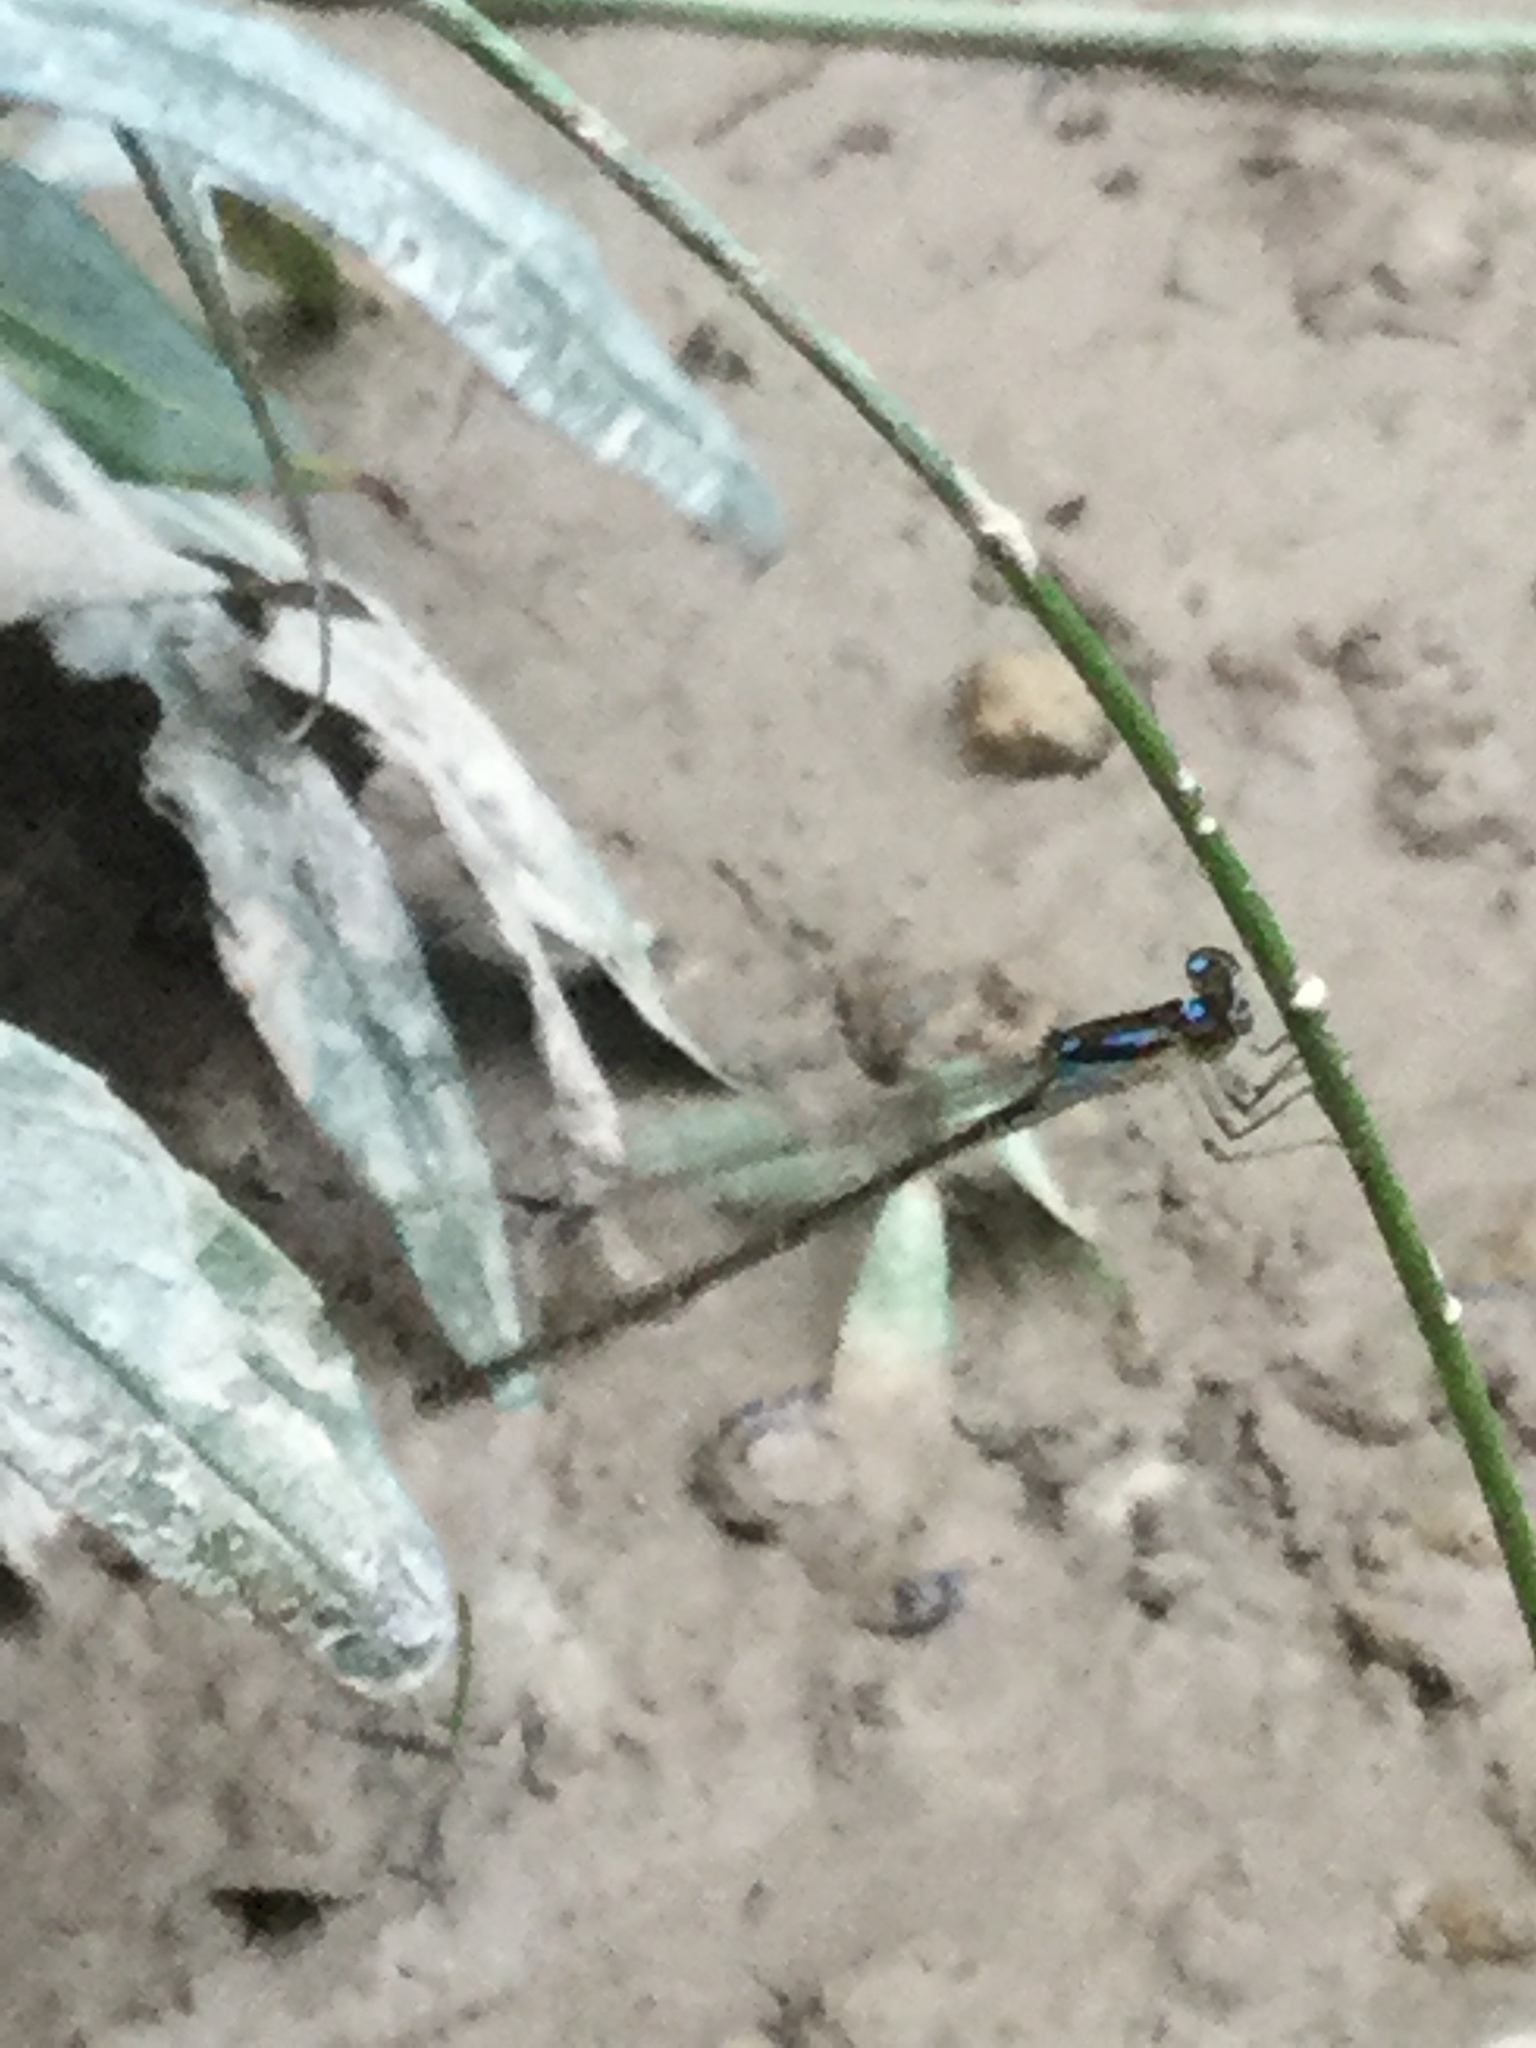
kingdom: Animalia
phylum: Arthropoda
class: Insecta
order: Odonata
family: Coenagrionidae
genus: Ischnura
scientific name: Ischnura posita
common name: Fragile forktail
